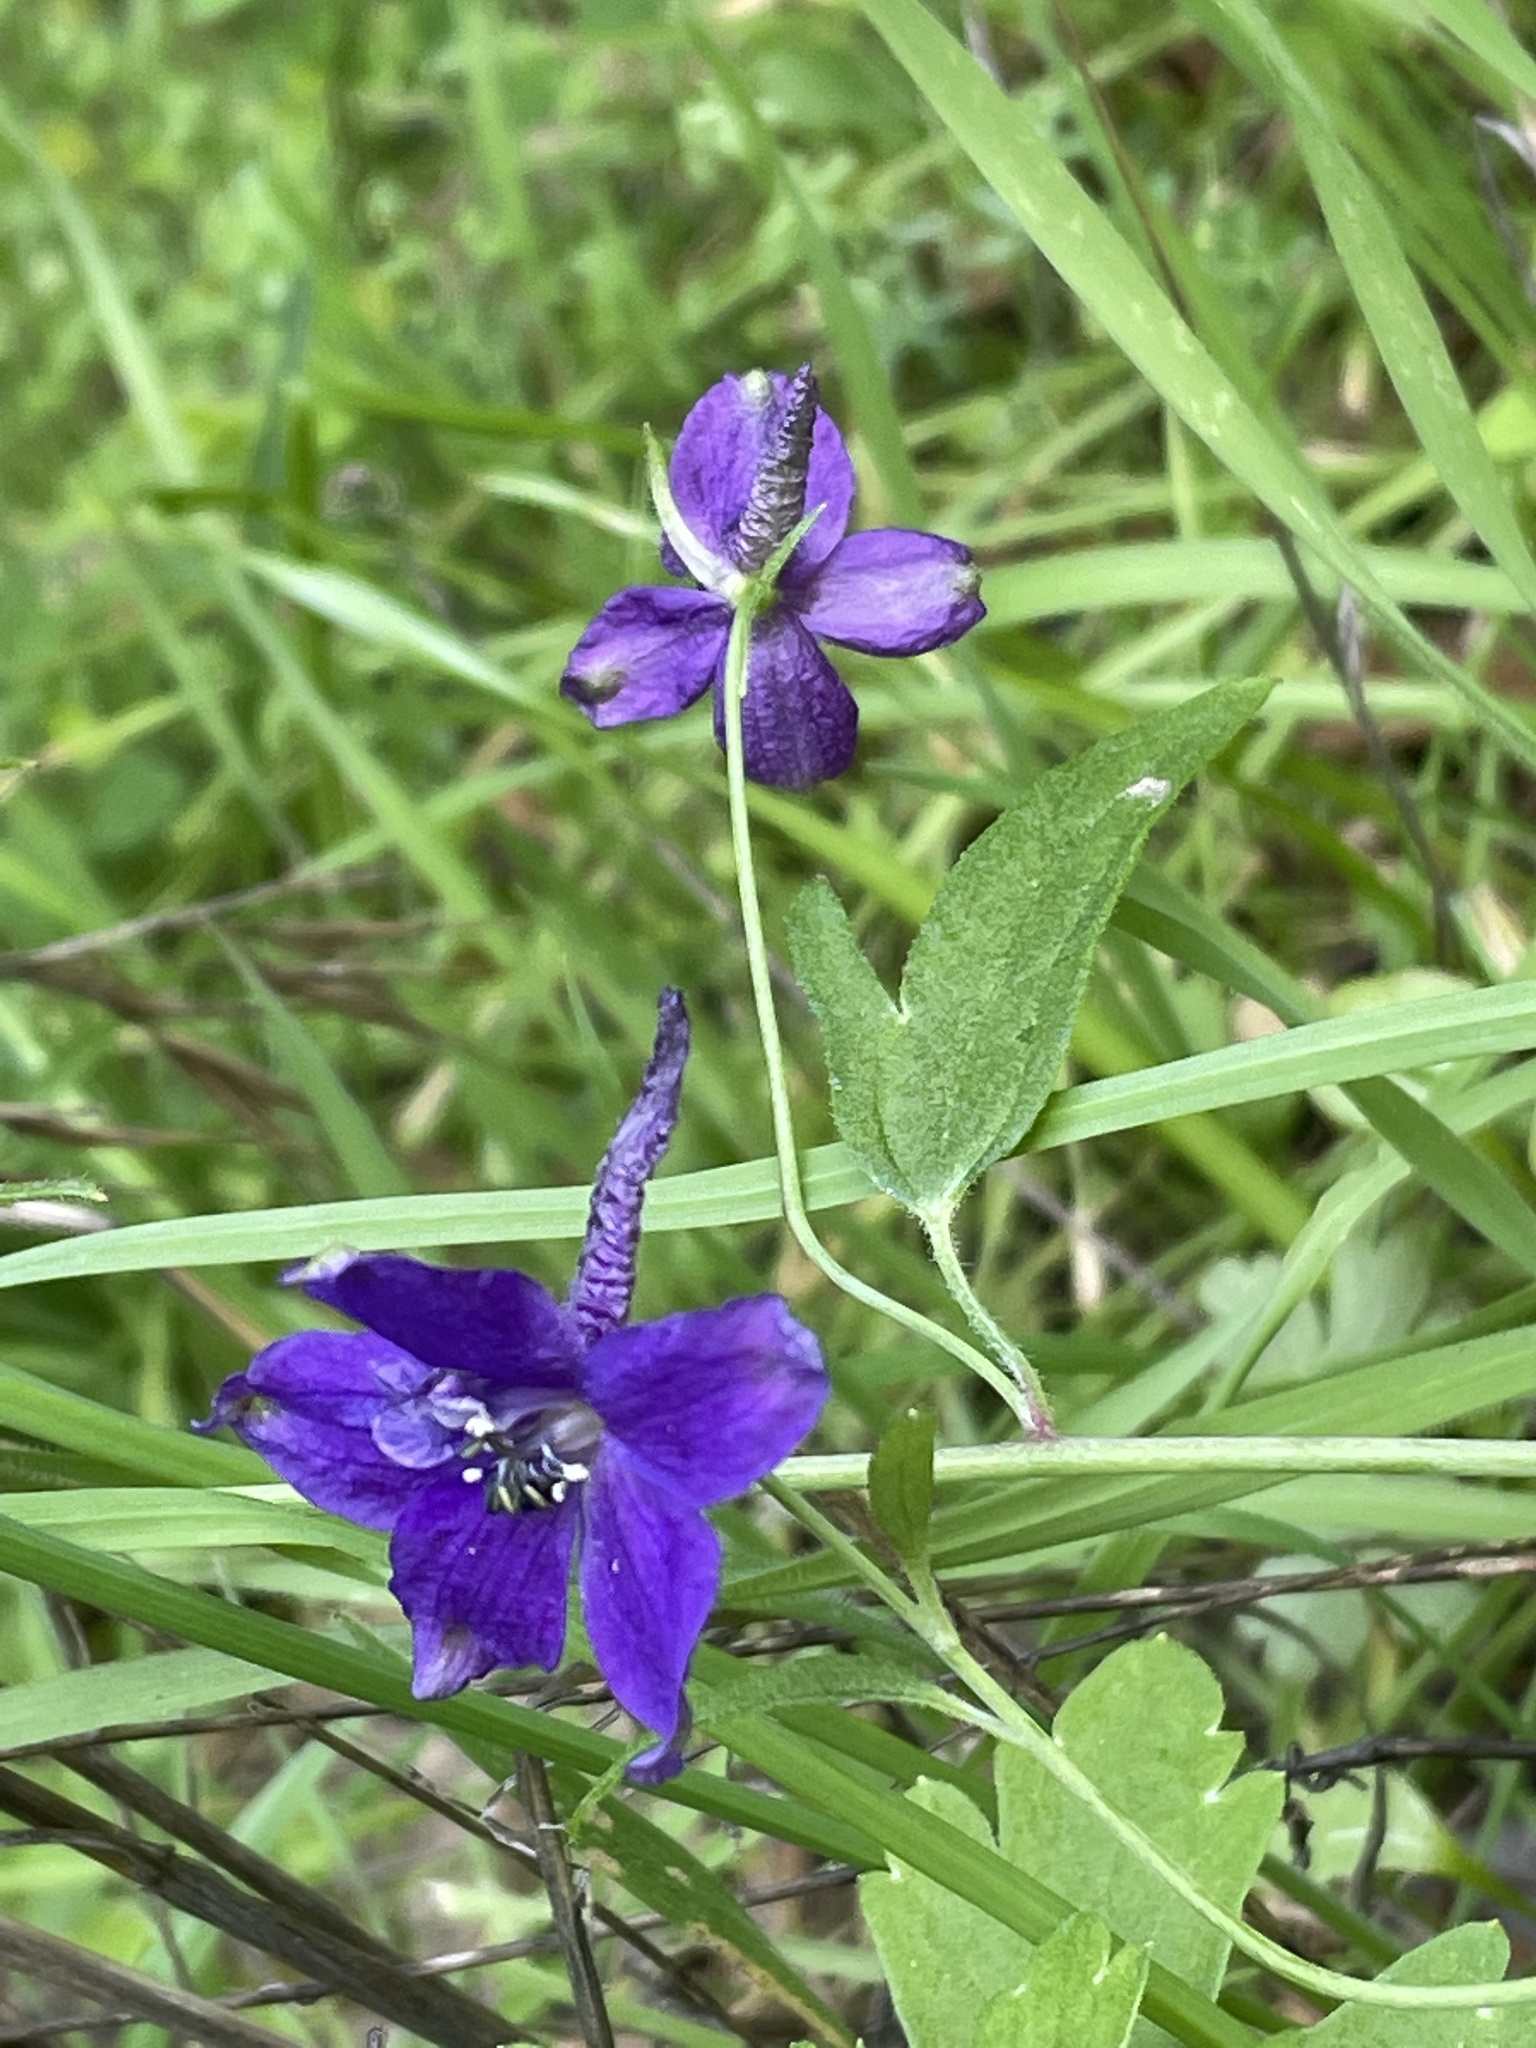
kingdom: Plantae
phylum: Tracheophyta
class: Magnoliopsida
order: Ranunculales
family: Ranunculaceae
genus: Delphinium
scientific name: Delphinium patens
